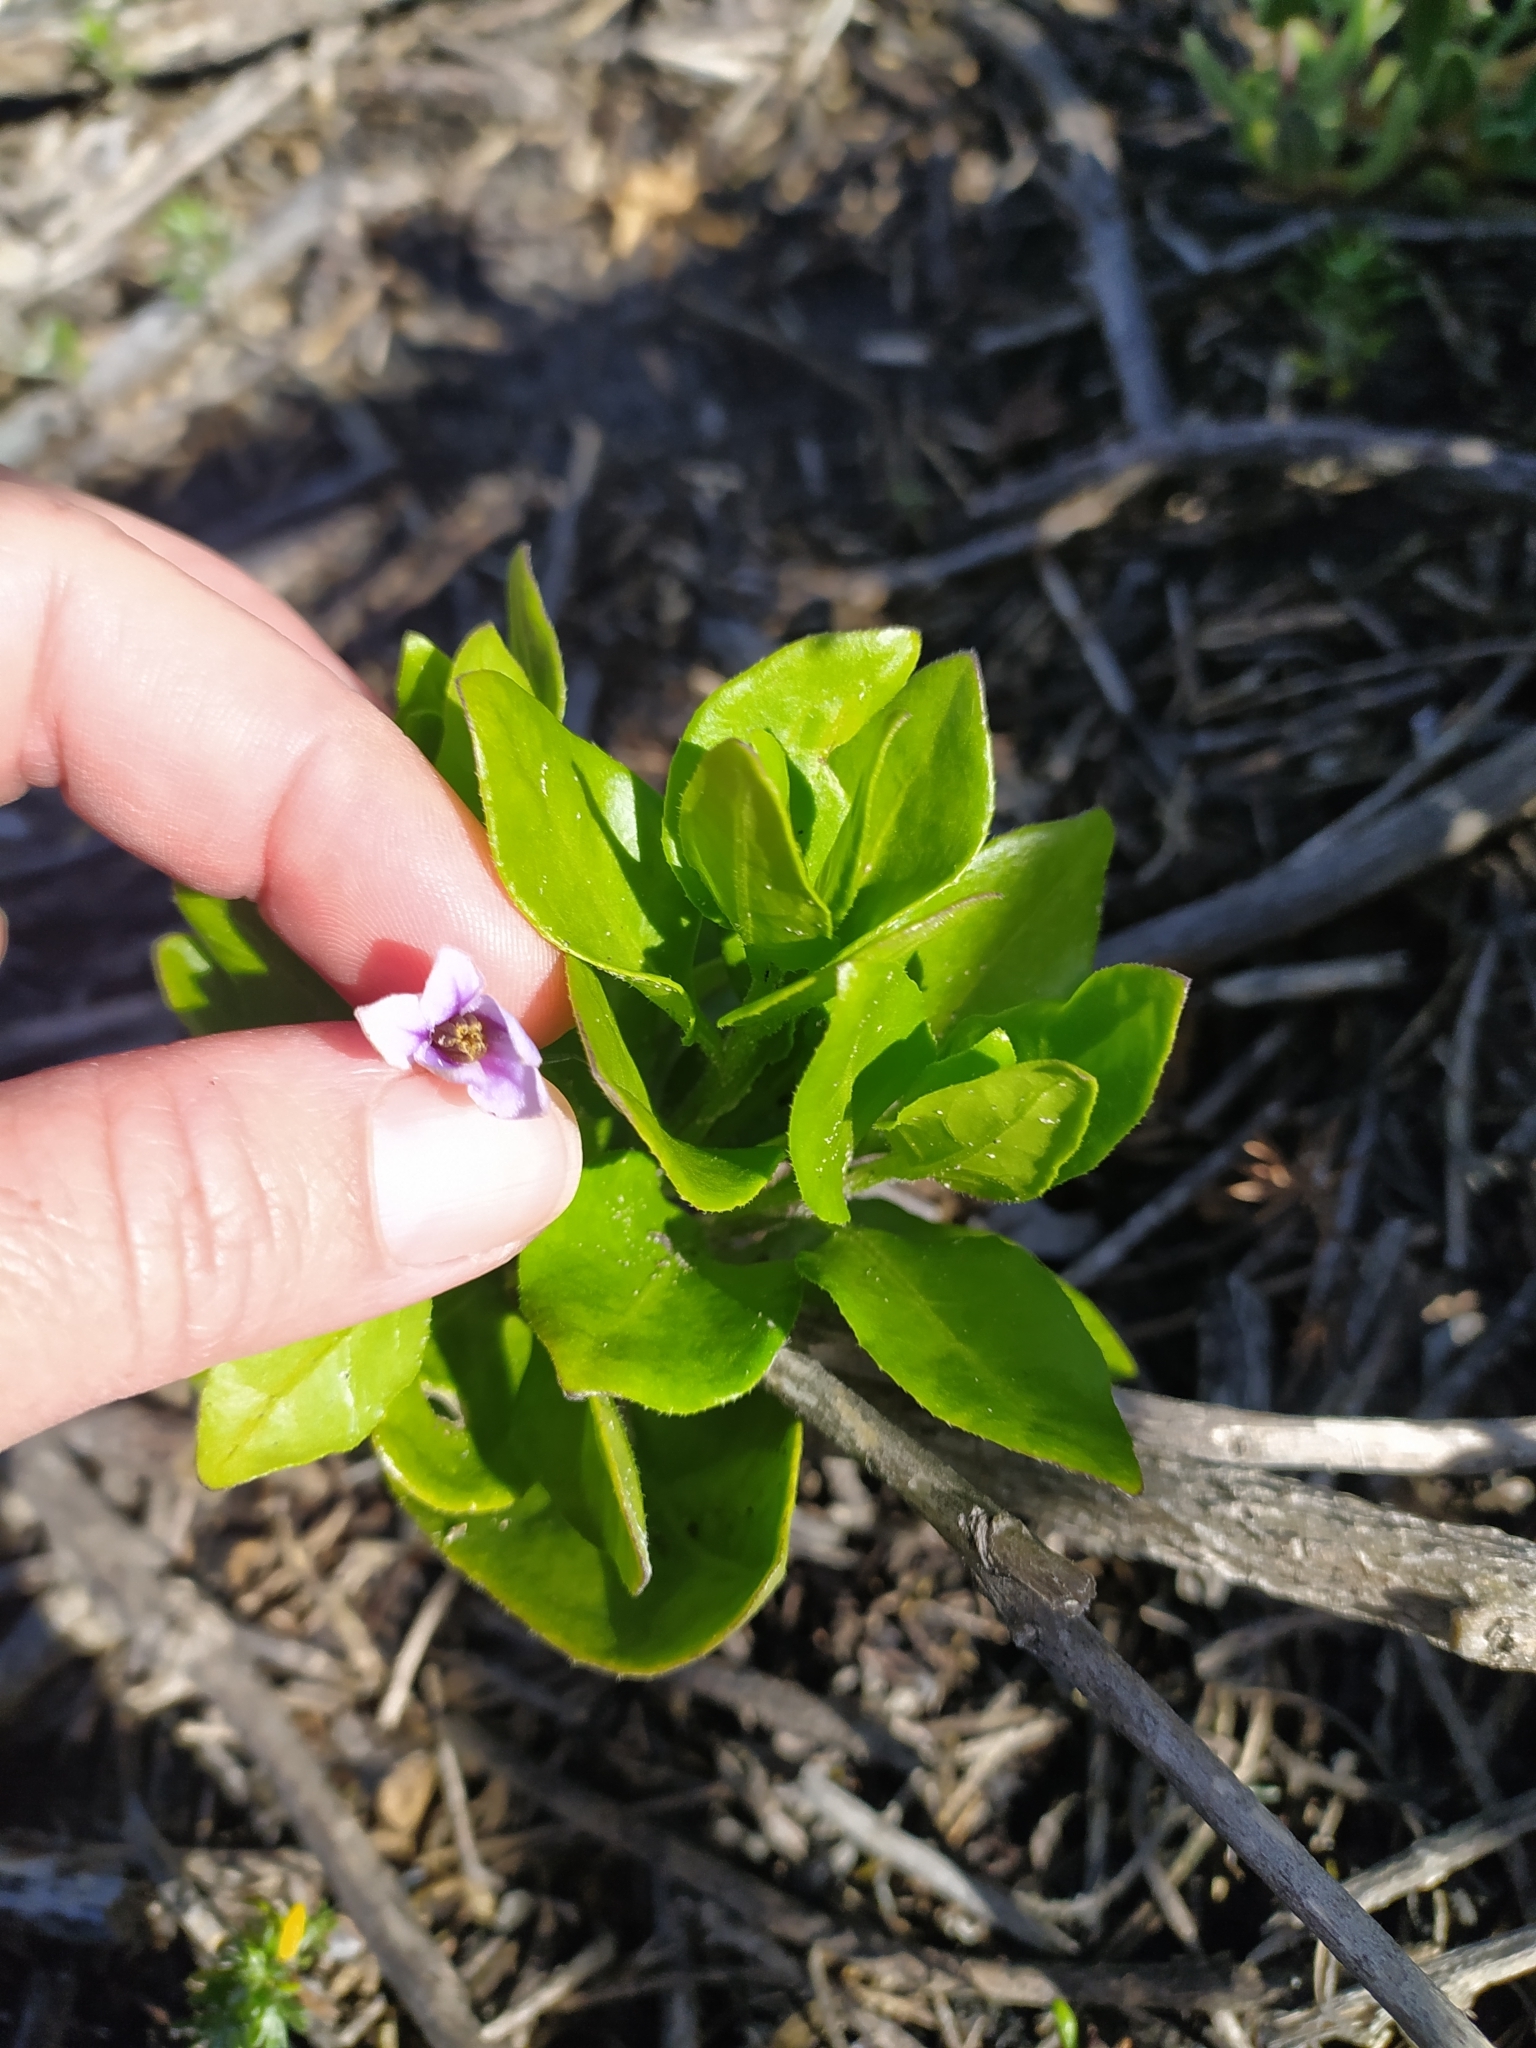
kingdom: Plantae
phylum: Tracheophyta
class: Magnoliopsida
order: Solanales
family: Solanaceae
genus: Solanum
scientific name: Solanum africanum
